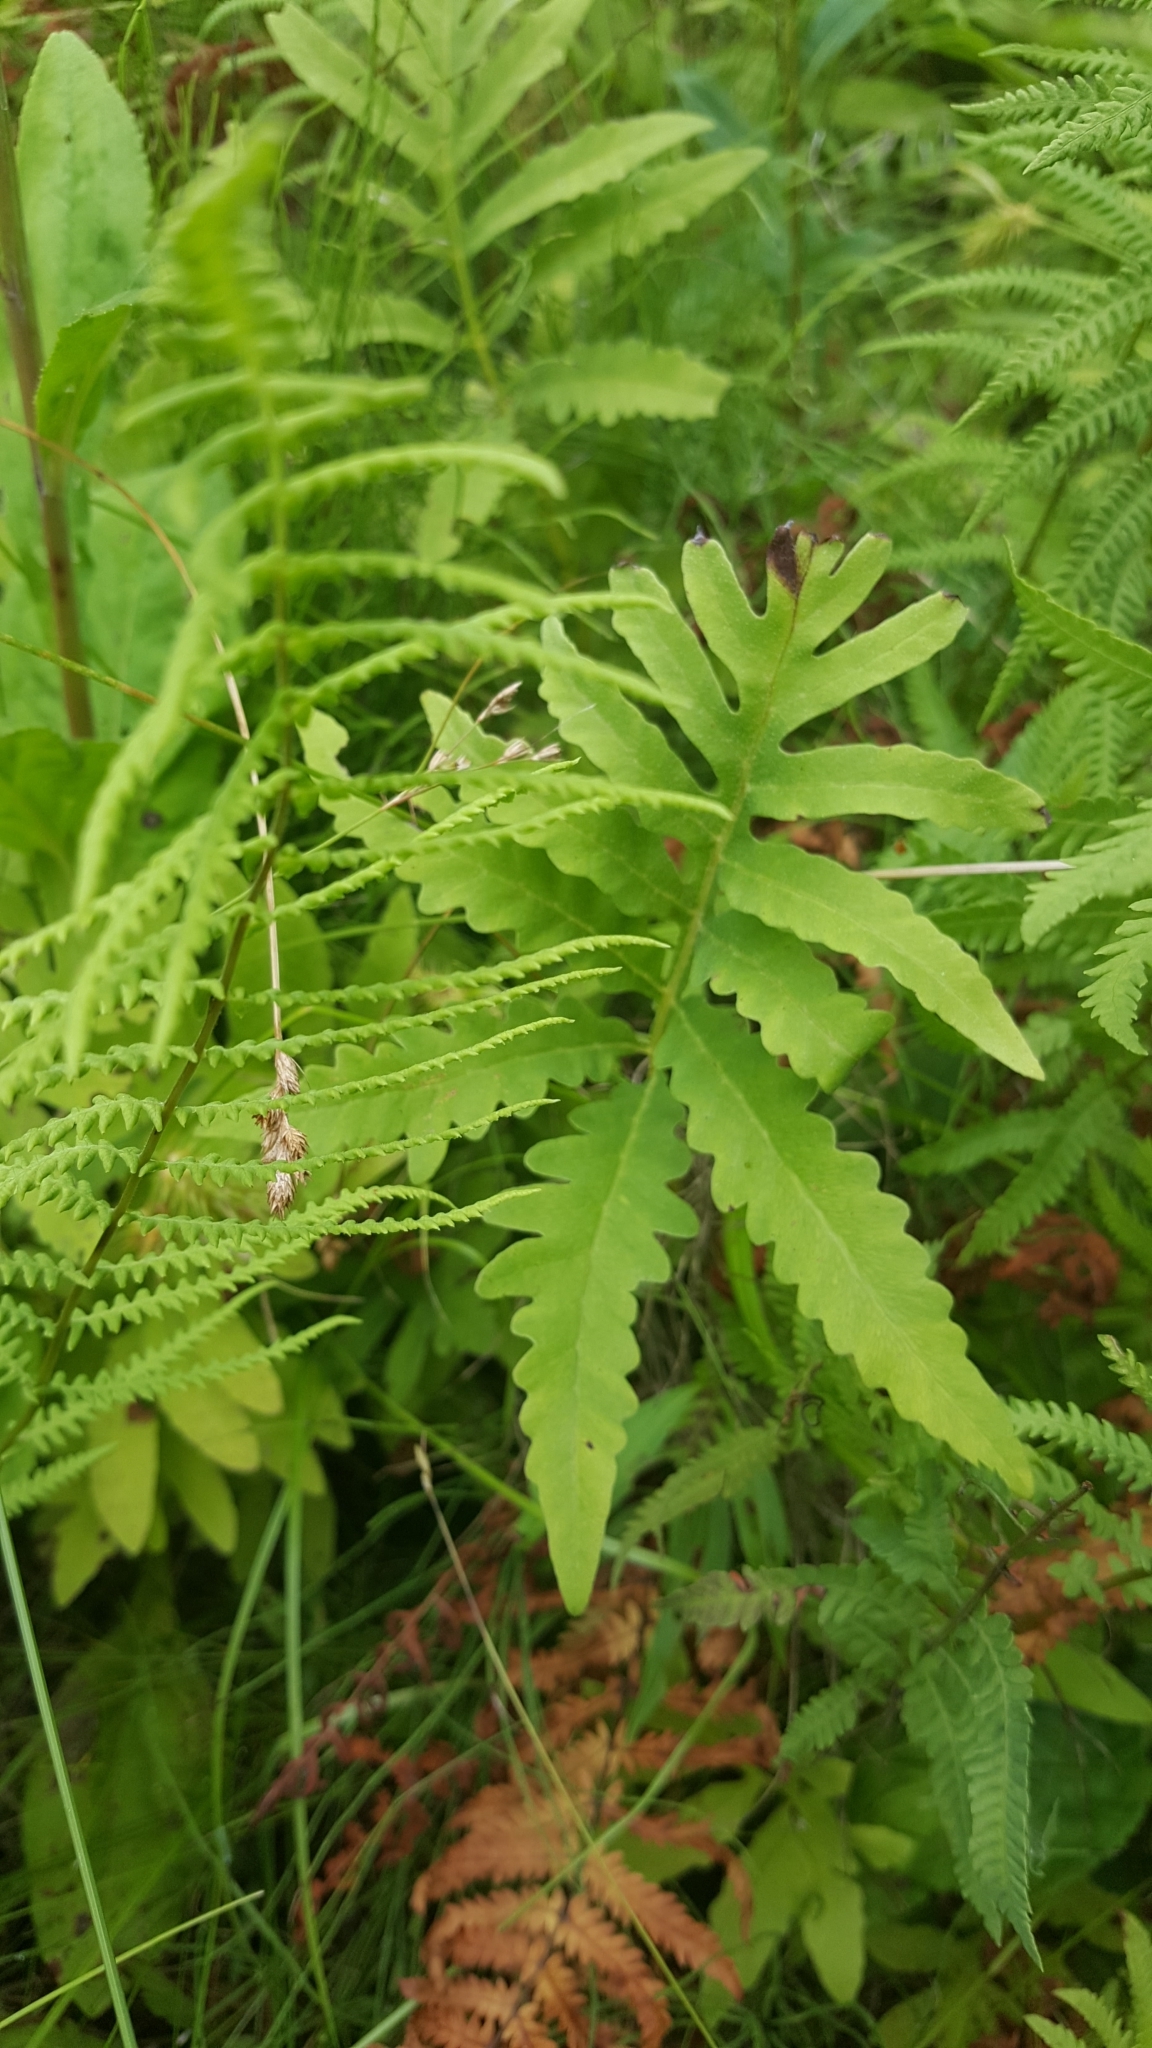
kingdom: Plantae
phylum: Tracheophyta
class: Polypodiopsida
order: Polypodiales
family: Onocleaceae
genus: Onoclea
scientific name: Onoclea sensibilis
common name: Sensitive fern
